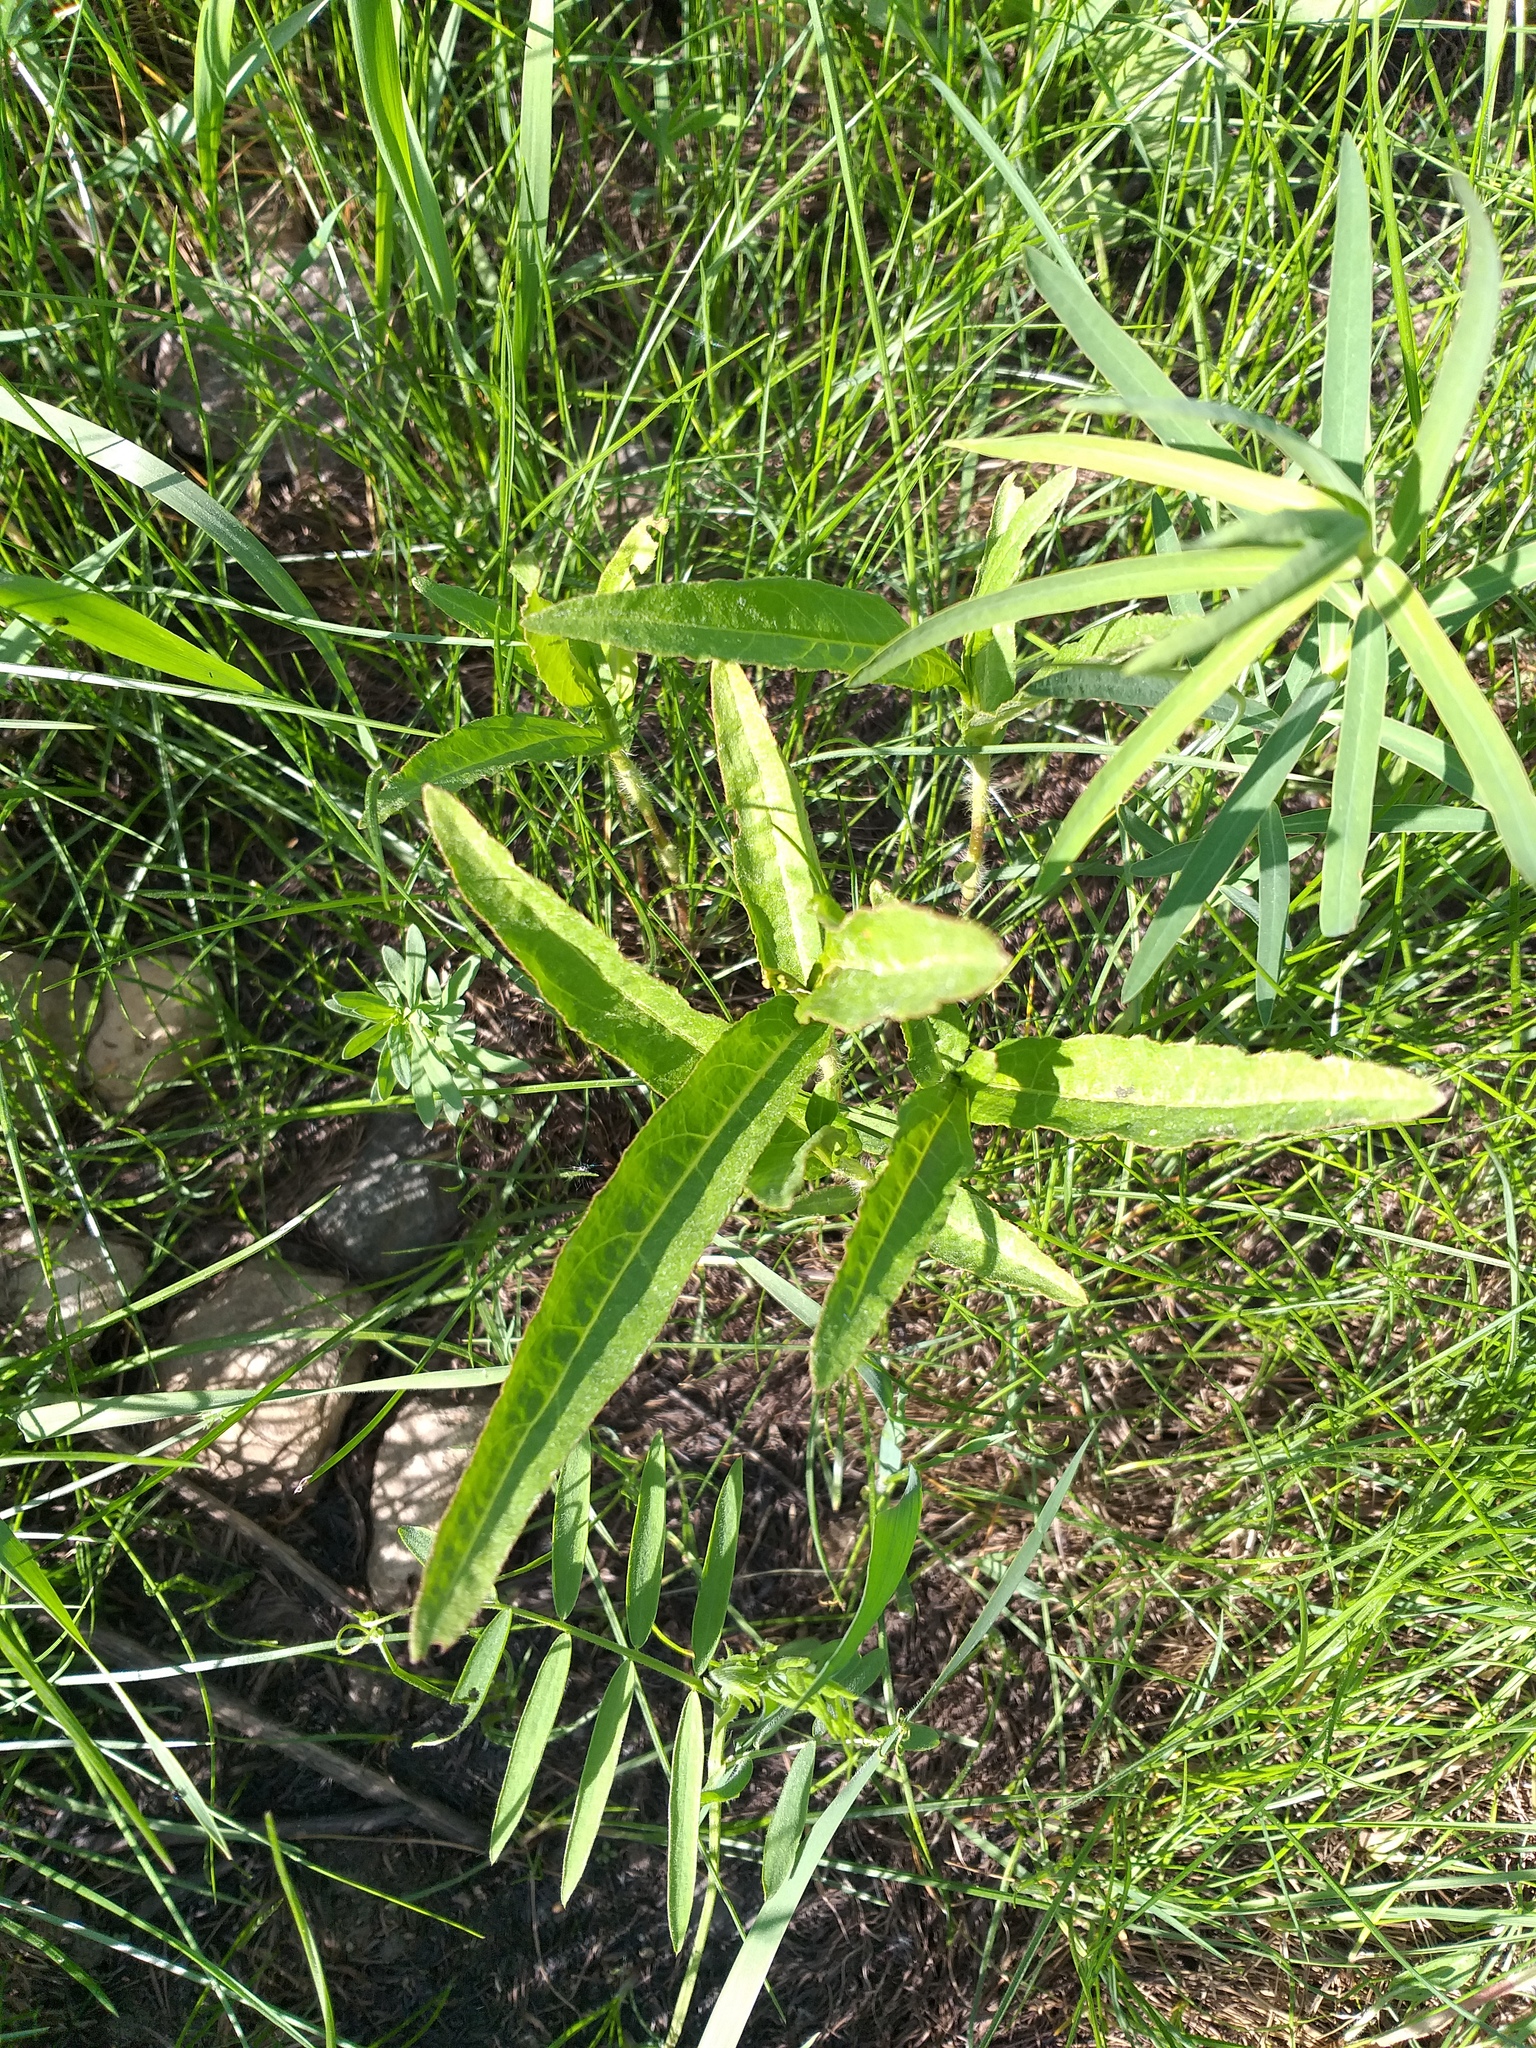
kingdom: Plantae
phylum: Tracheophyta
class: Magnoliopsida
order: Caryophyllales
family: Polygonaceae
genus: Persicaria
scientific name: Persicaria amphibia
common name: Amphibious bistort
